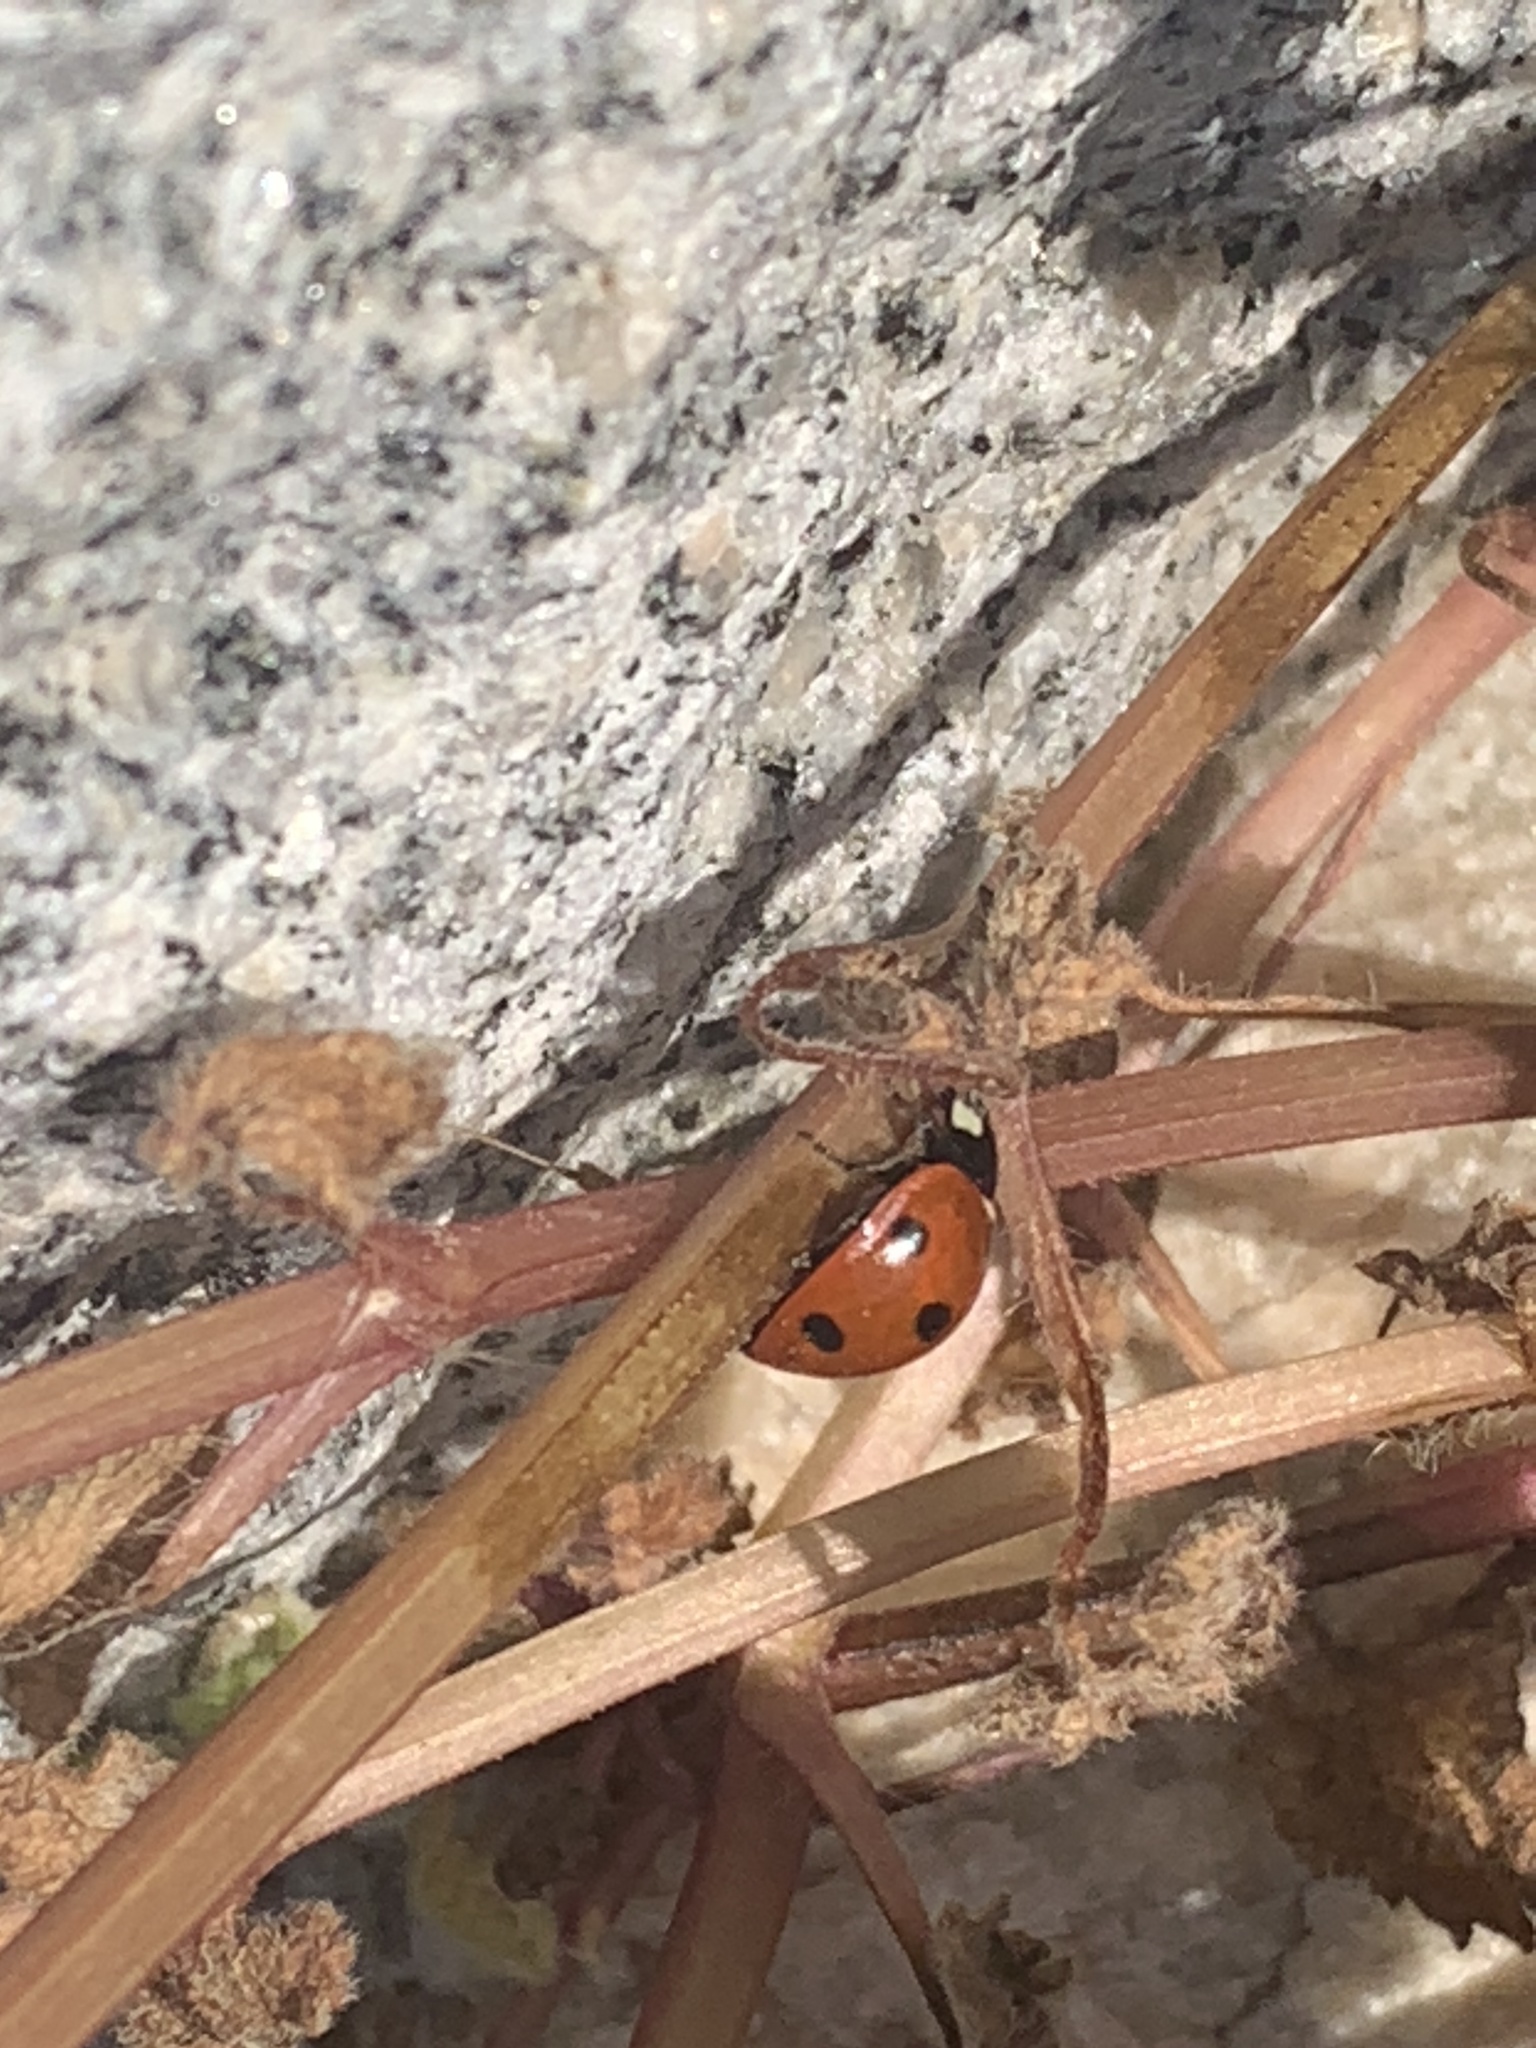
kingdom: Animalia
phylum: Arthropoda
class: Insecta
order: Coleoptera
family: Coccinellidae
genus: Coccinella
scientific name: Coccinella septempunctata
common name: Sevenspotted lady beetle
